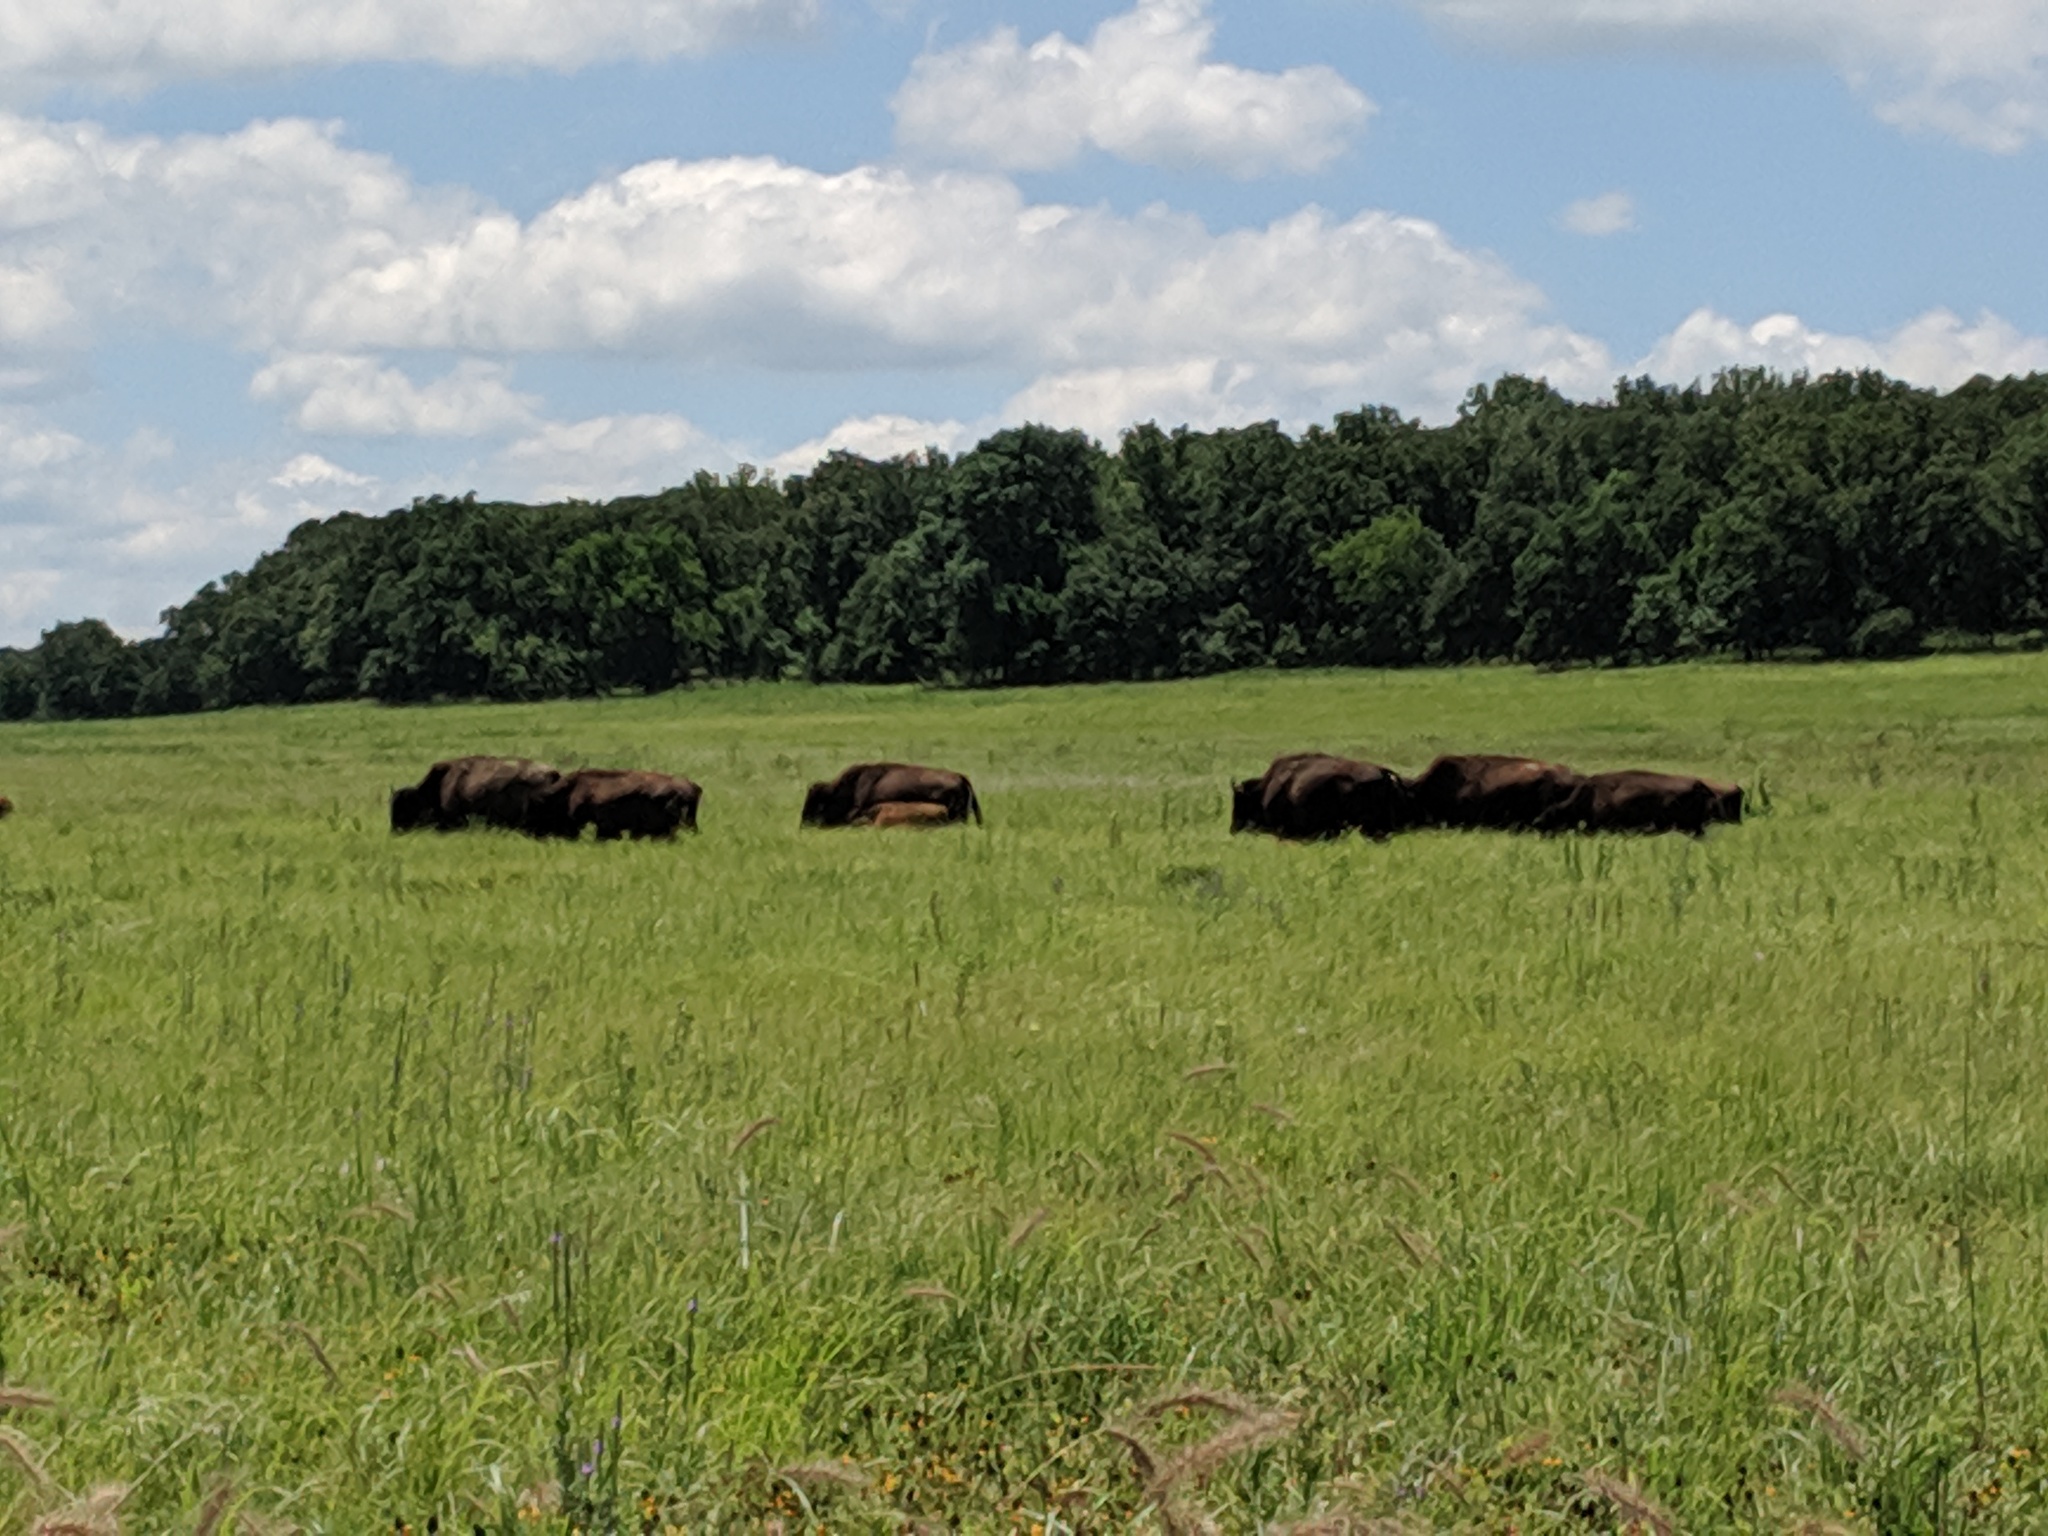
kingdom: Animalia
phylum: Chordata
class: Mammalia
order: Artiodactyla
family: Bovidae
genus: Bison
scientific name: Bison bison
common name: American bison
